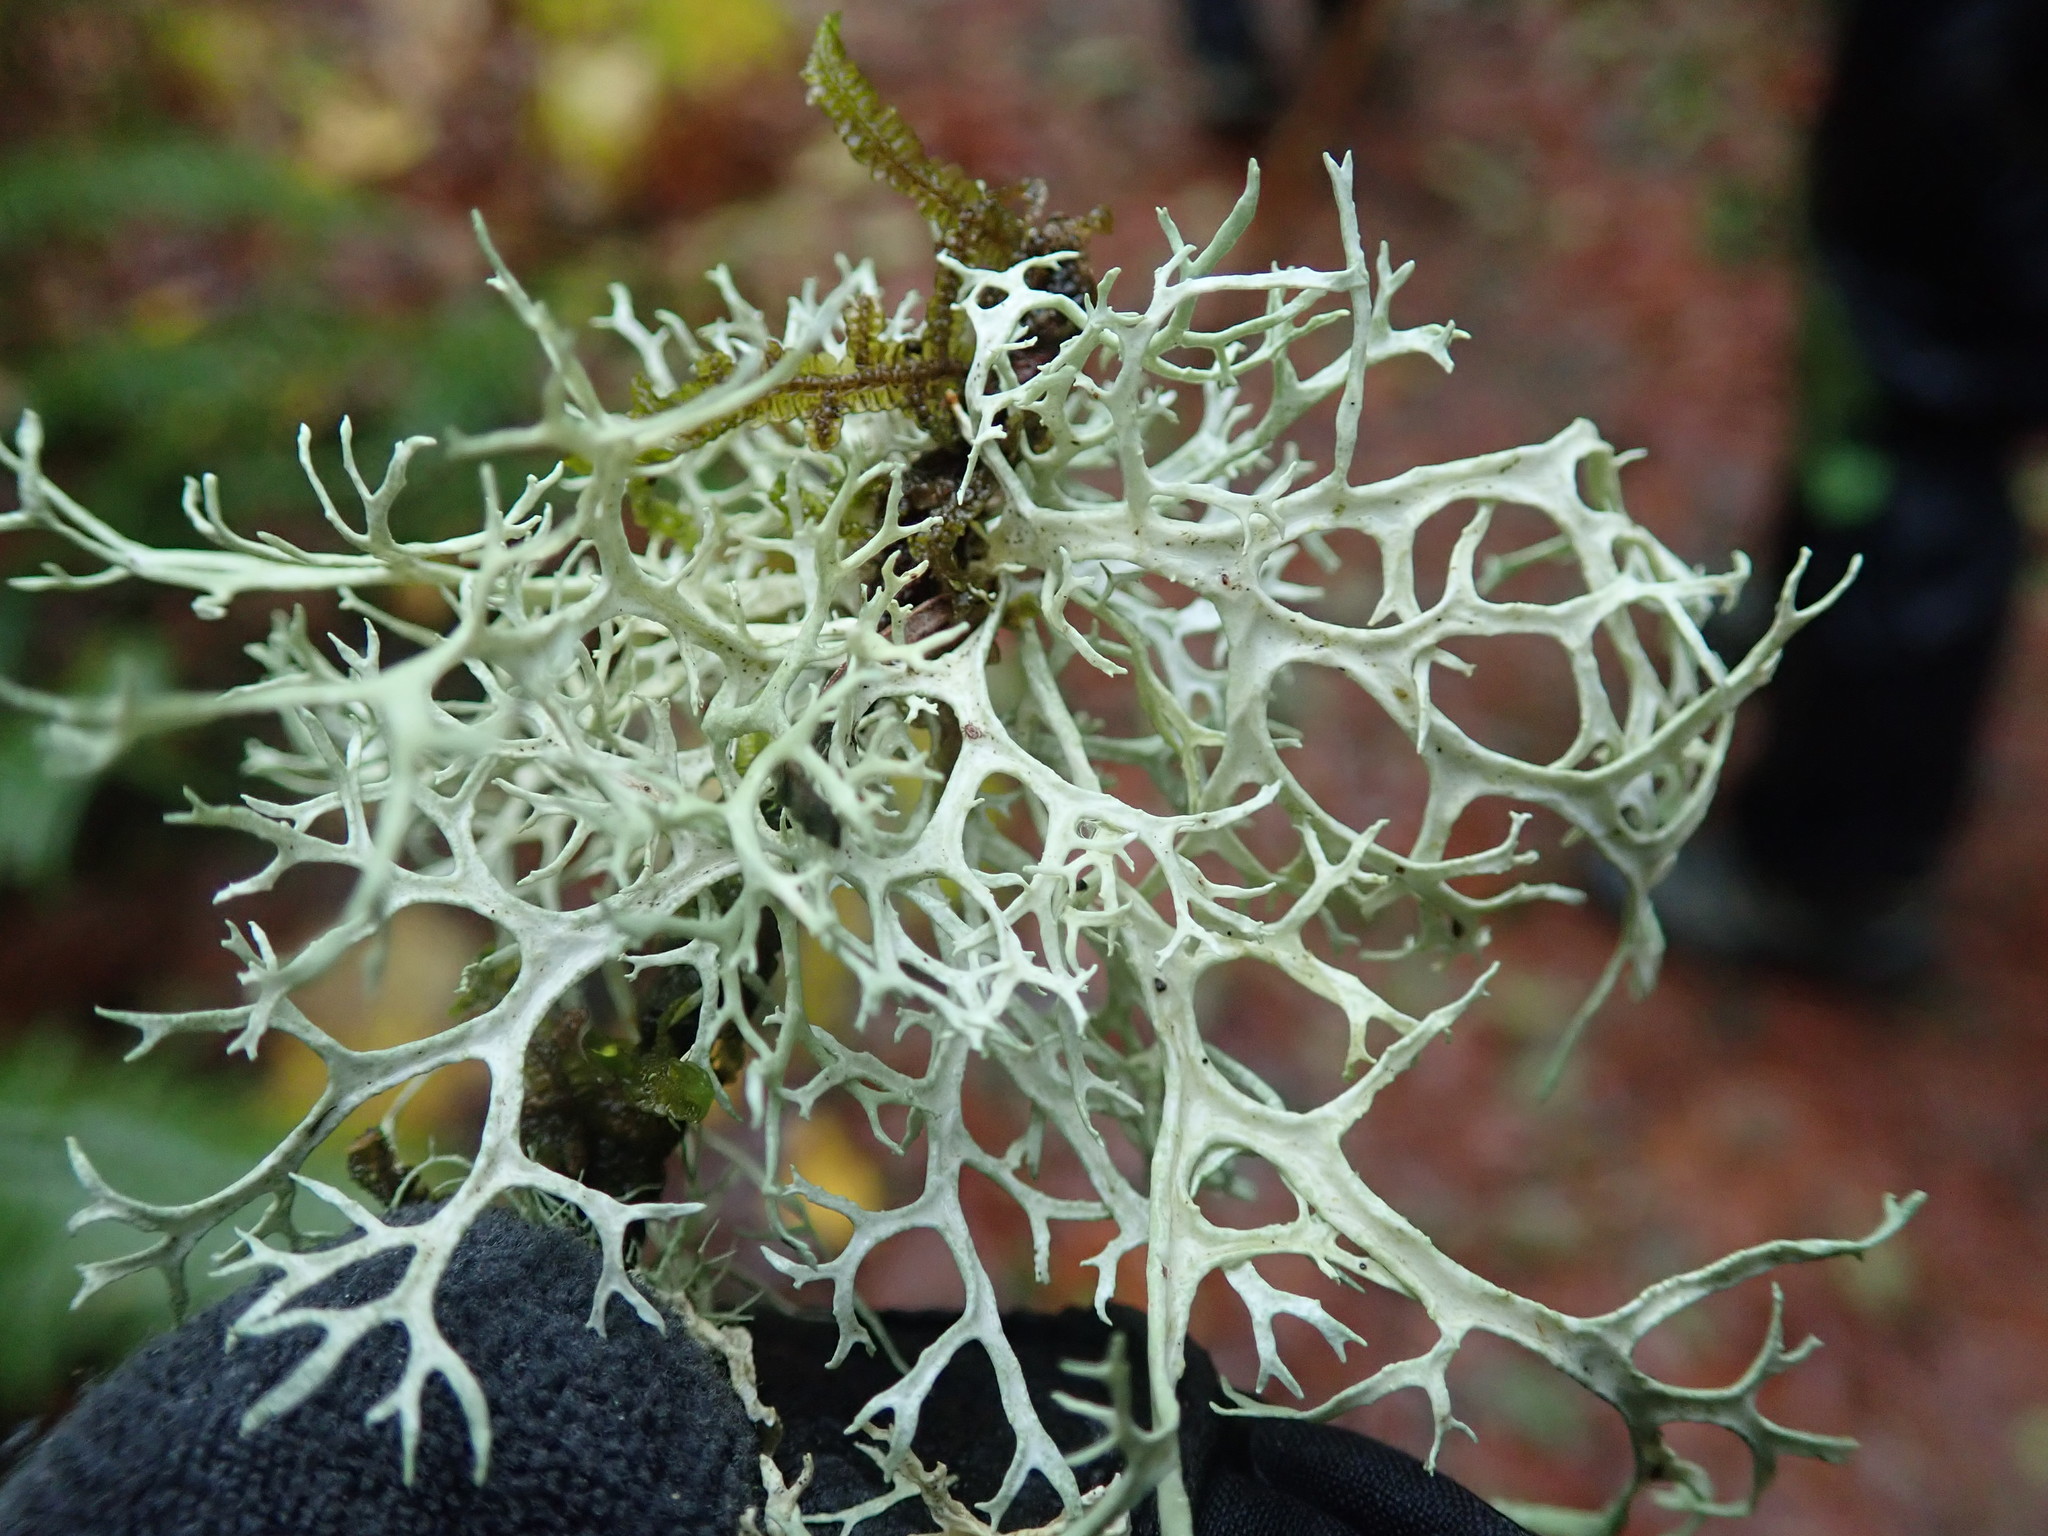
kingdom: Fungi
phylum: Ascomycota
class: Lecanoromycetes
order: Lecanorales
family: Parmeliaceae
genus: Evernia
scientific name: Evernia prunastri
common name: Oak moss
